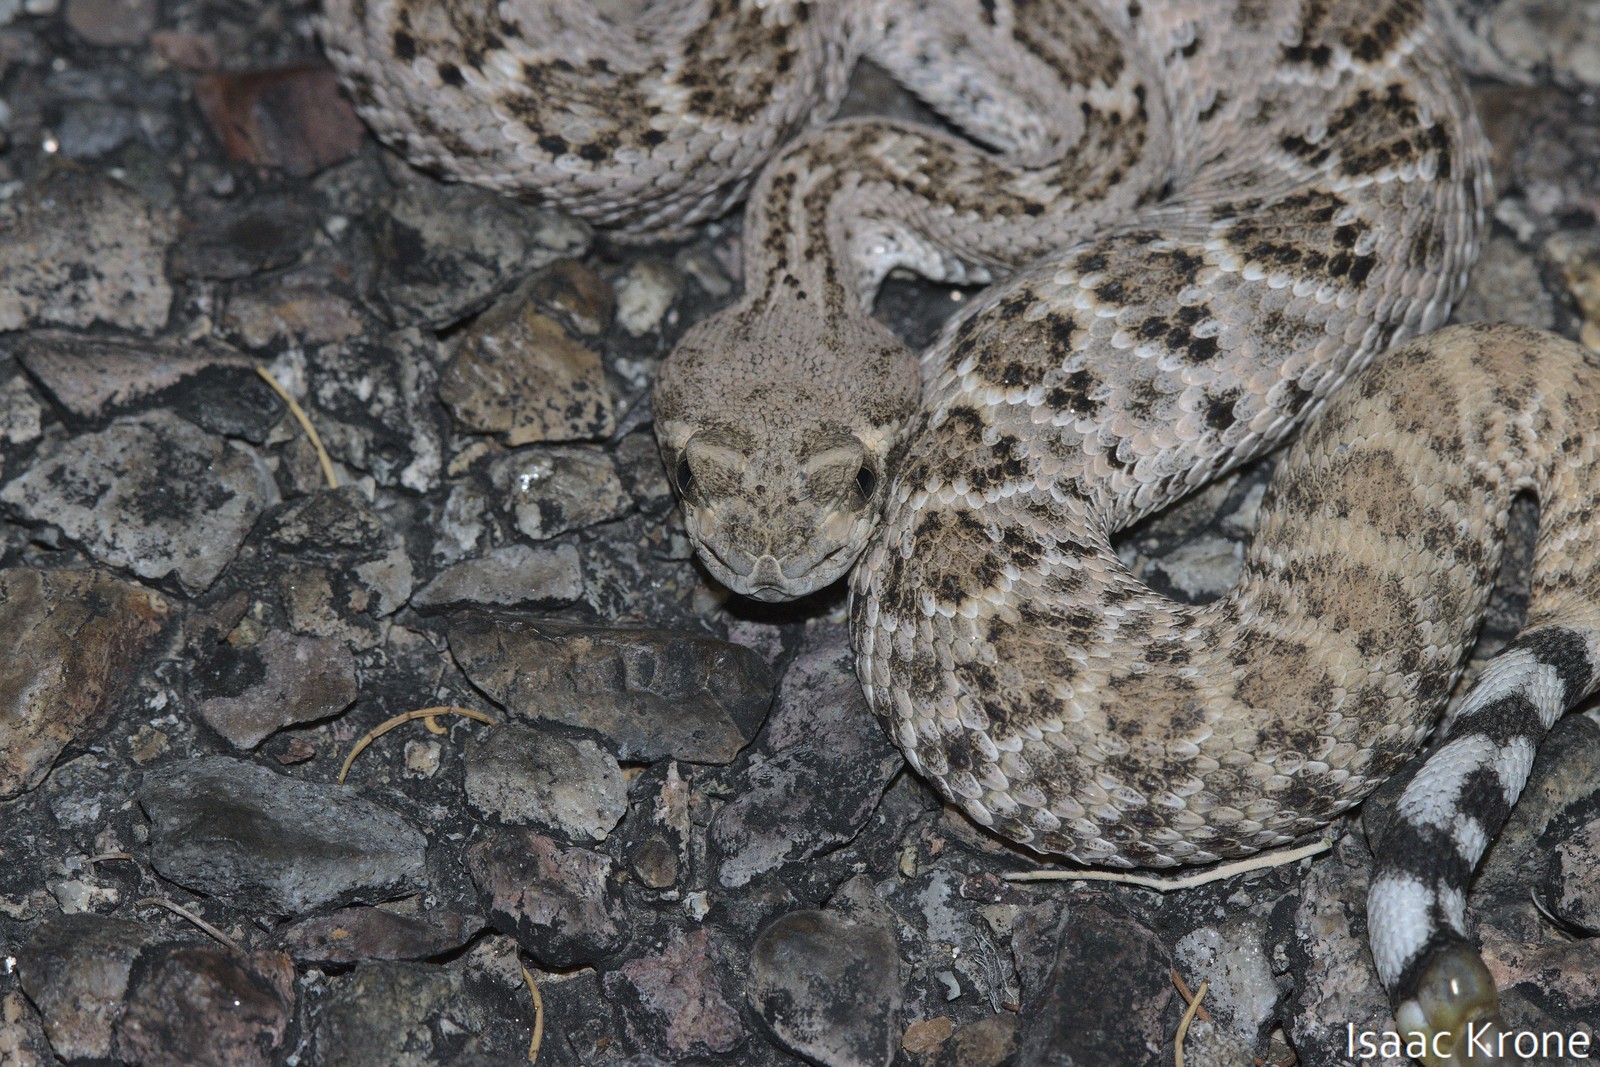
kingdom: Animalia
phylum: Chordata
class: Squamata
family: Viperidae
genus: Crotalus
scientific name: Crotalus atrox
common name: Western diamond-backed rattlesnake
